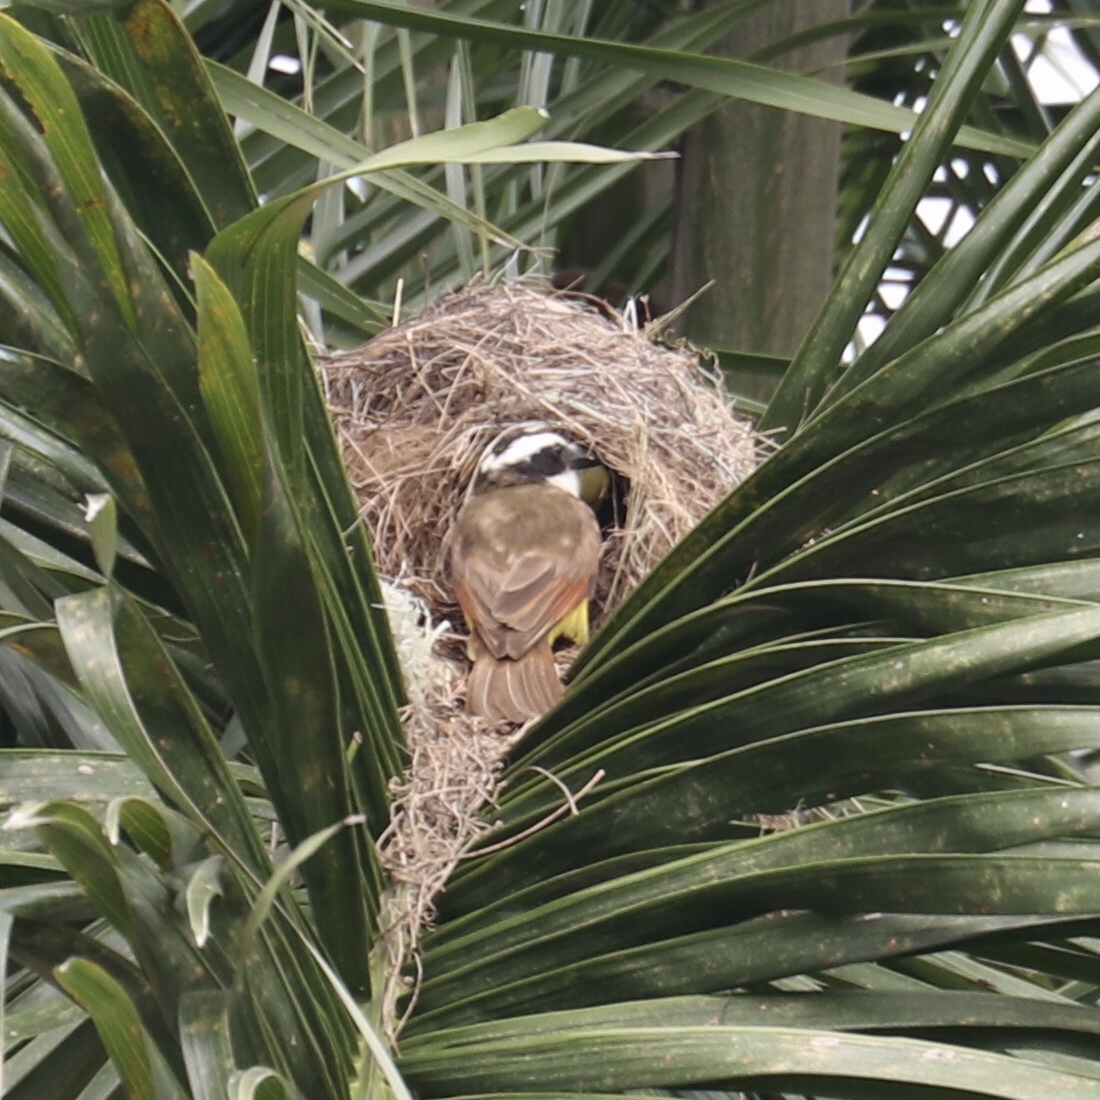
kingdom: Animalia
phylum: Chordata
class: Aves
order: Passeriformes
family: Tyrannidae
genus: Pitangus
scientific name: Pitangus sulphuratus
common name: Great kiskadee
